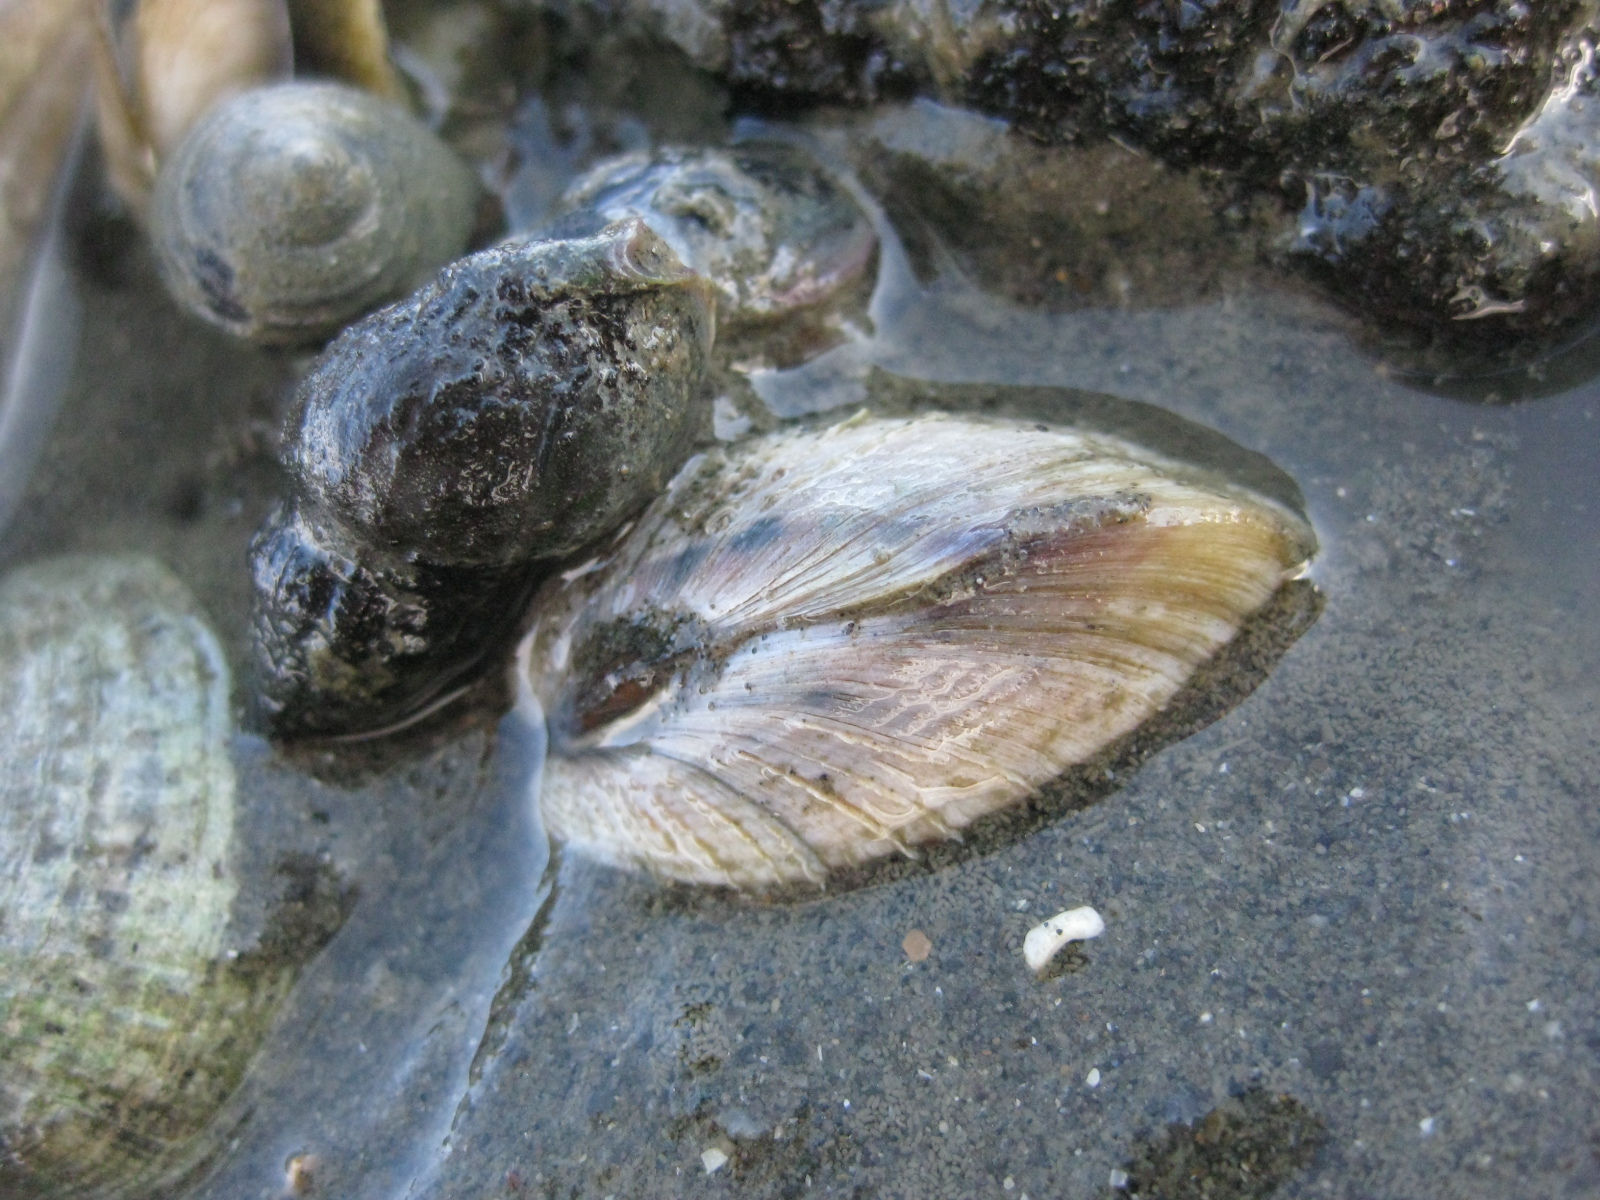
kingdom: Animalia
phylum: Mollusca
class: Bivalvia
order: Venerida
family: Veneridae
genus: Austrovenus
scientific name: Austrovenus stutchburyi
